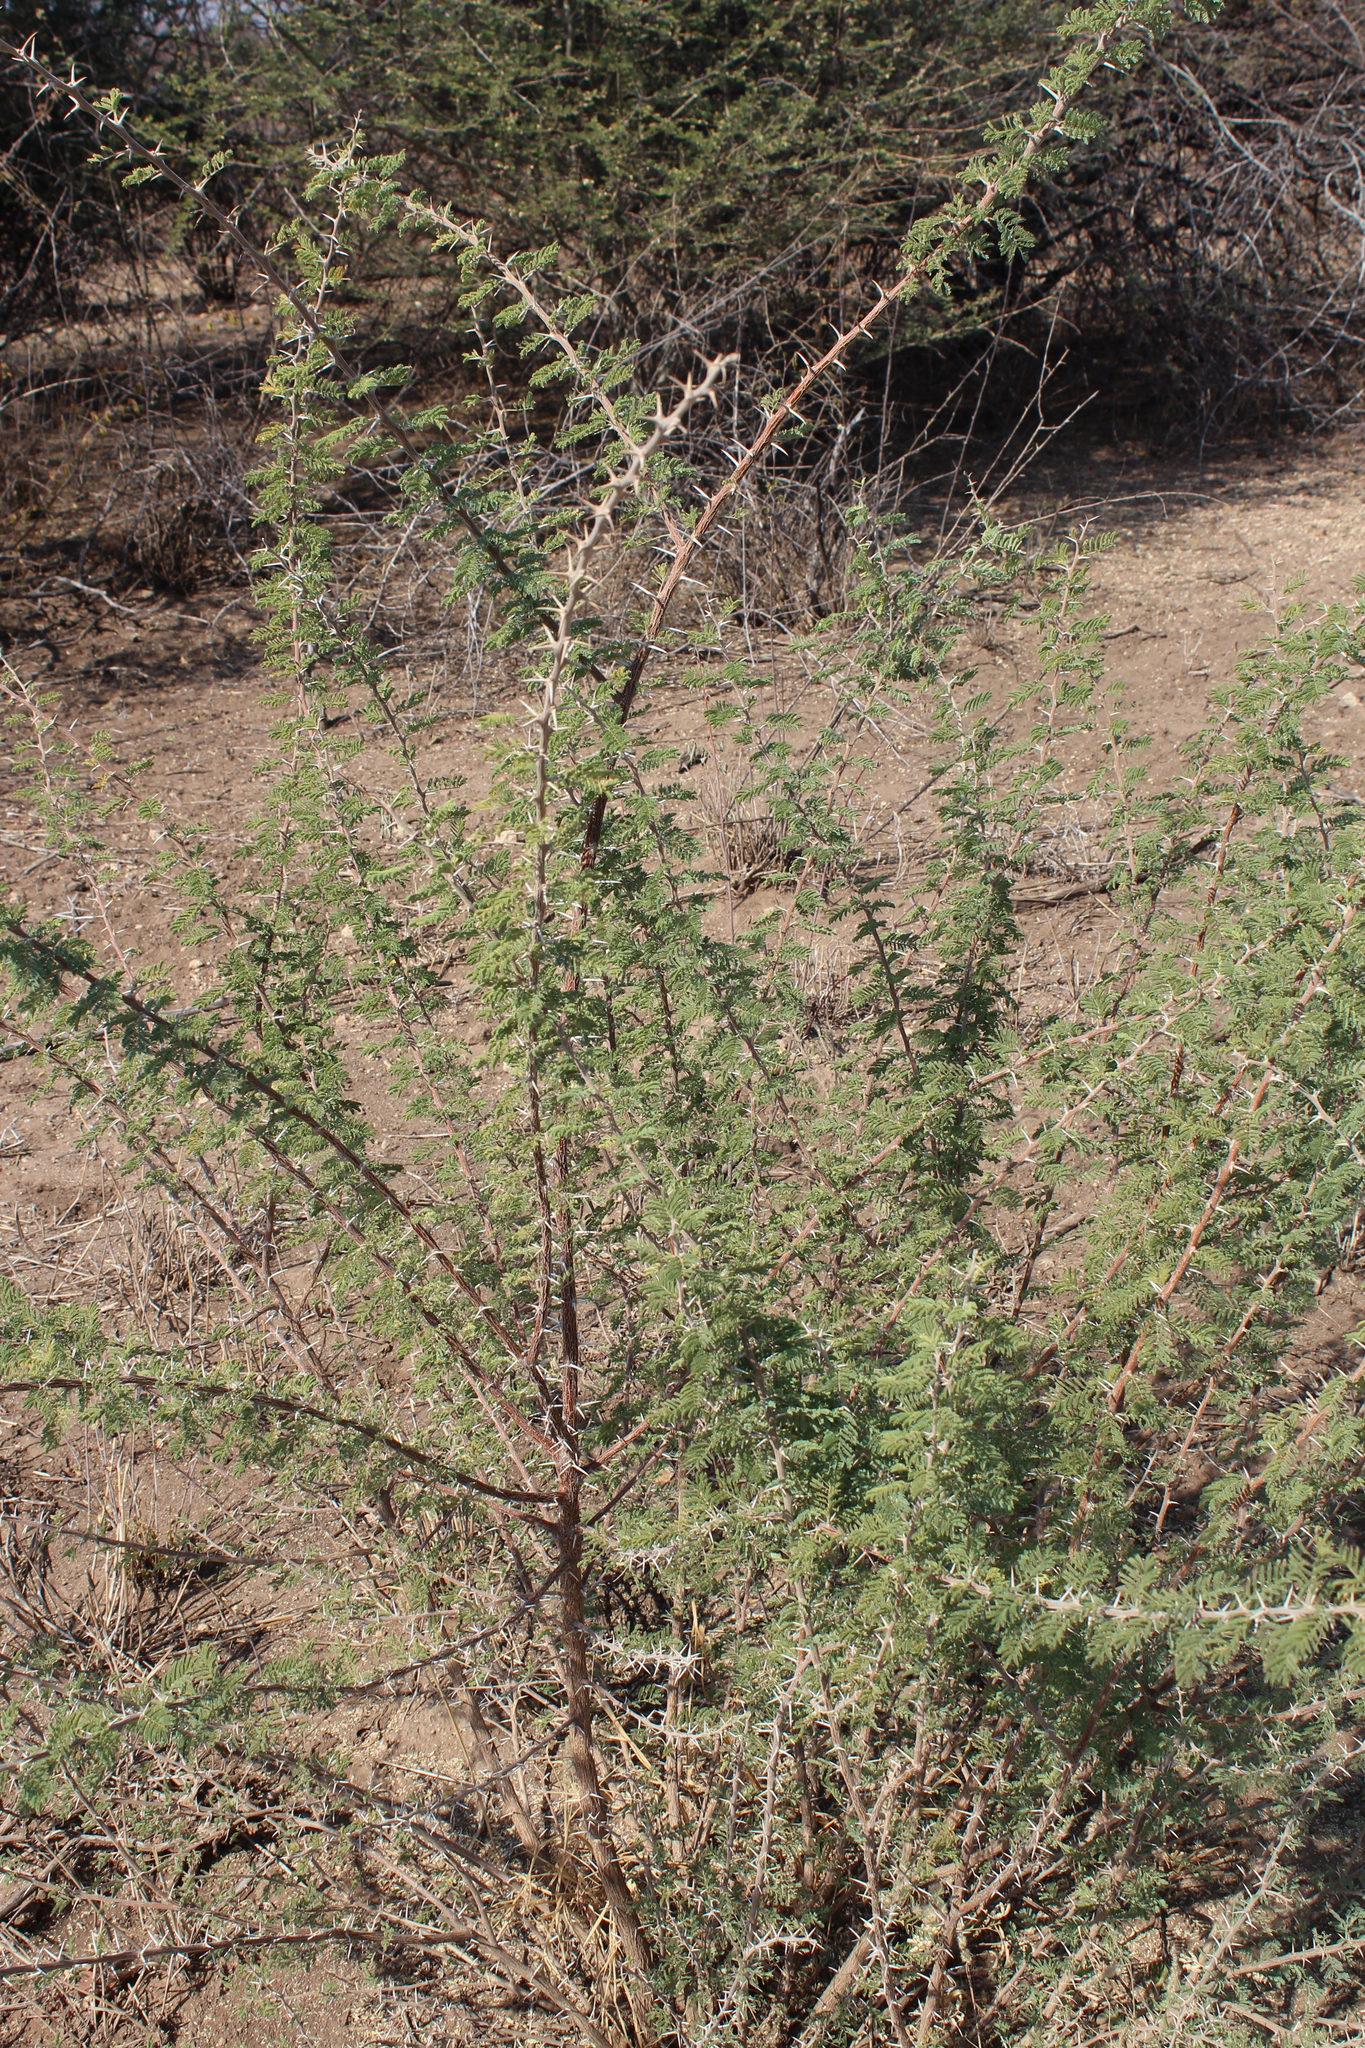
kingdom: Plantae
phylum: Tracheophyta
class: Magnoliopsida
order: Fabales
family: Fabaceae
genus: Vachellia
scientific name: Vachellia luederitzii
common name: Bastard umbrella thorn
